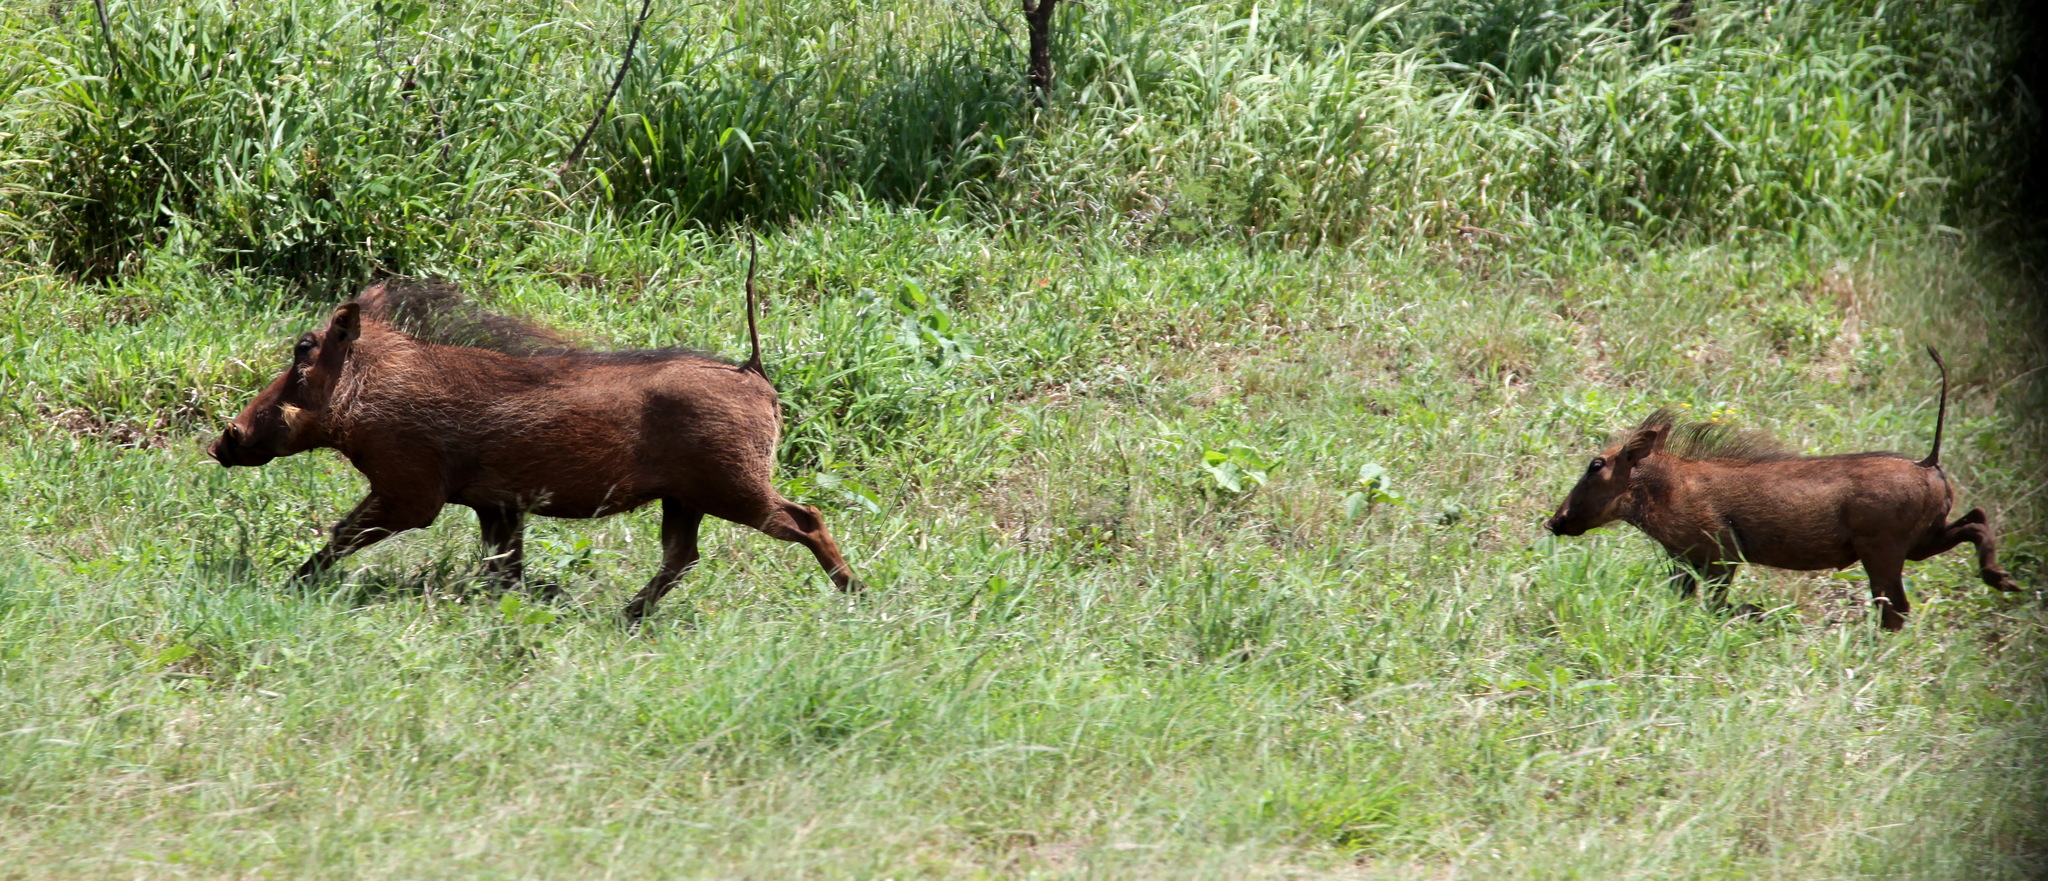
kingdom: Animalia
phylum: Chordata
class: Mammalia
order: Artiodactyla
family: Suidae
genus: Phacochoerus
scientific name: Phacochoerus africanus
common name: Common warthog
